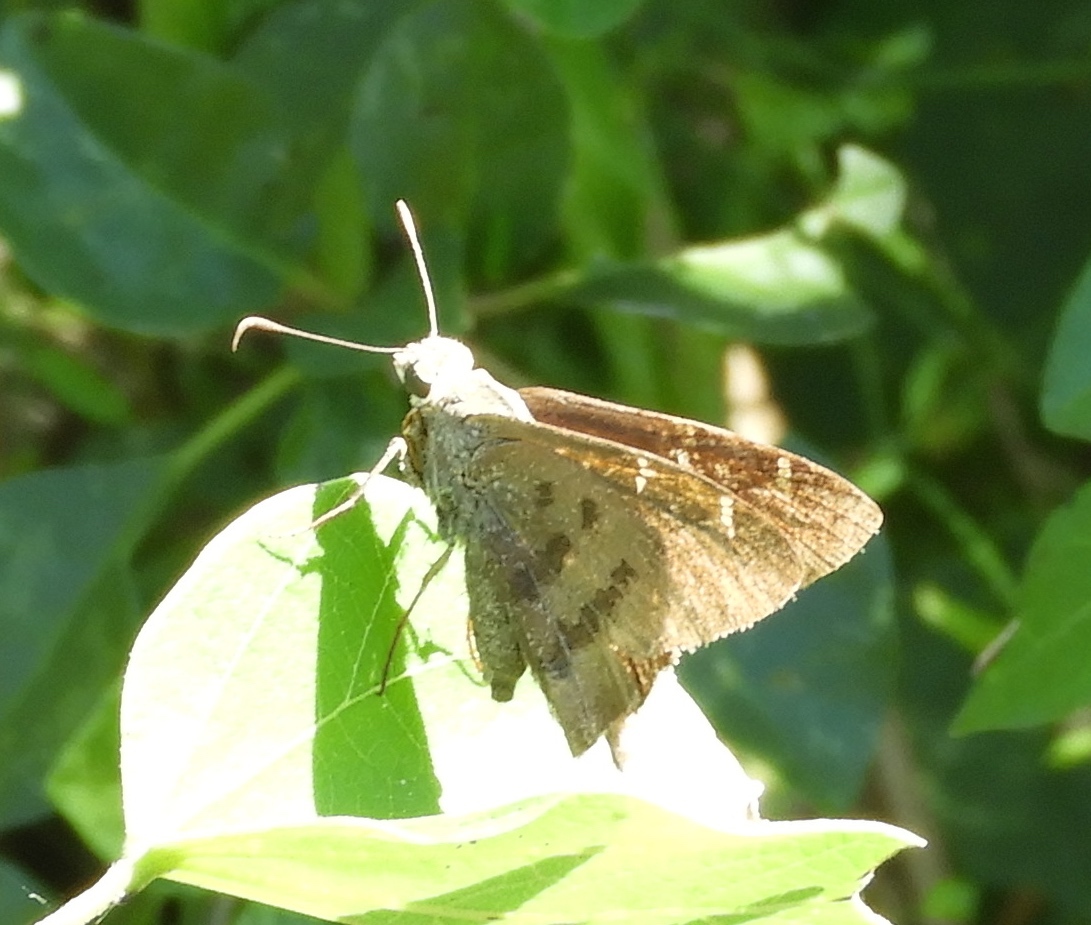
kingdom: Animalia
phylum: Arthropoda
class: Insecta
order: Lepidoptera
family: Hesperiidae
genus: Urbanus
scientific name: Urbanus procne
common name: Brown longtail
